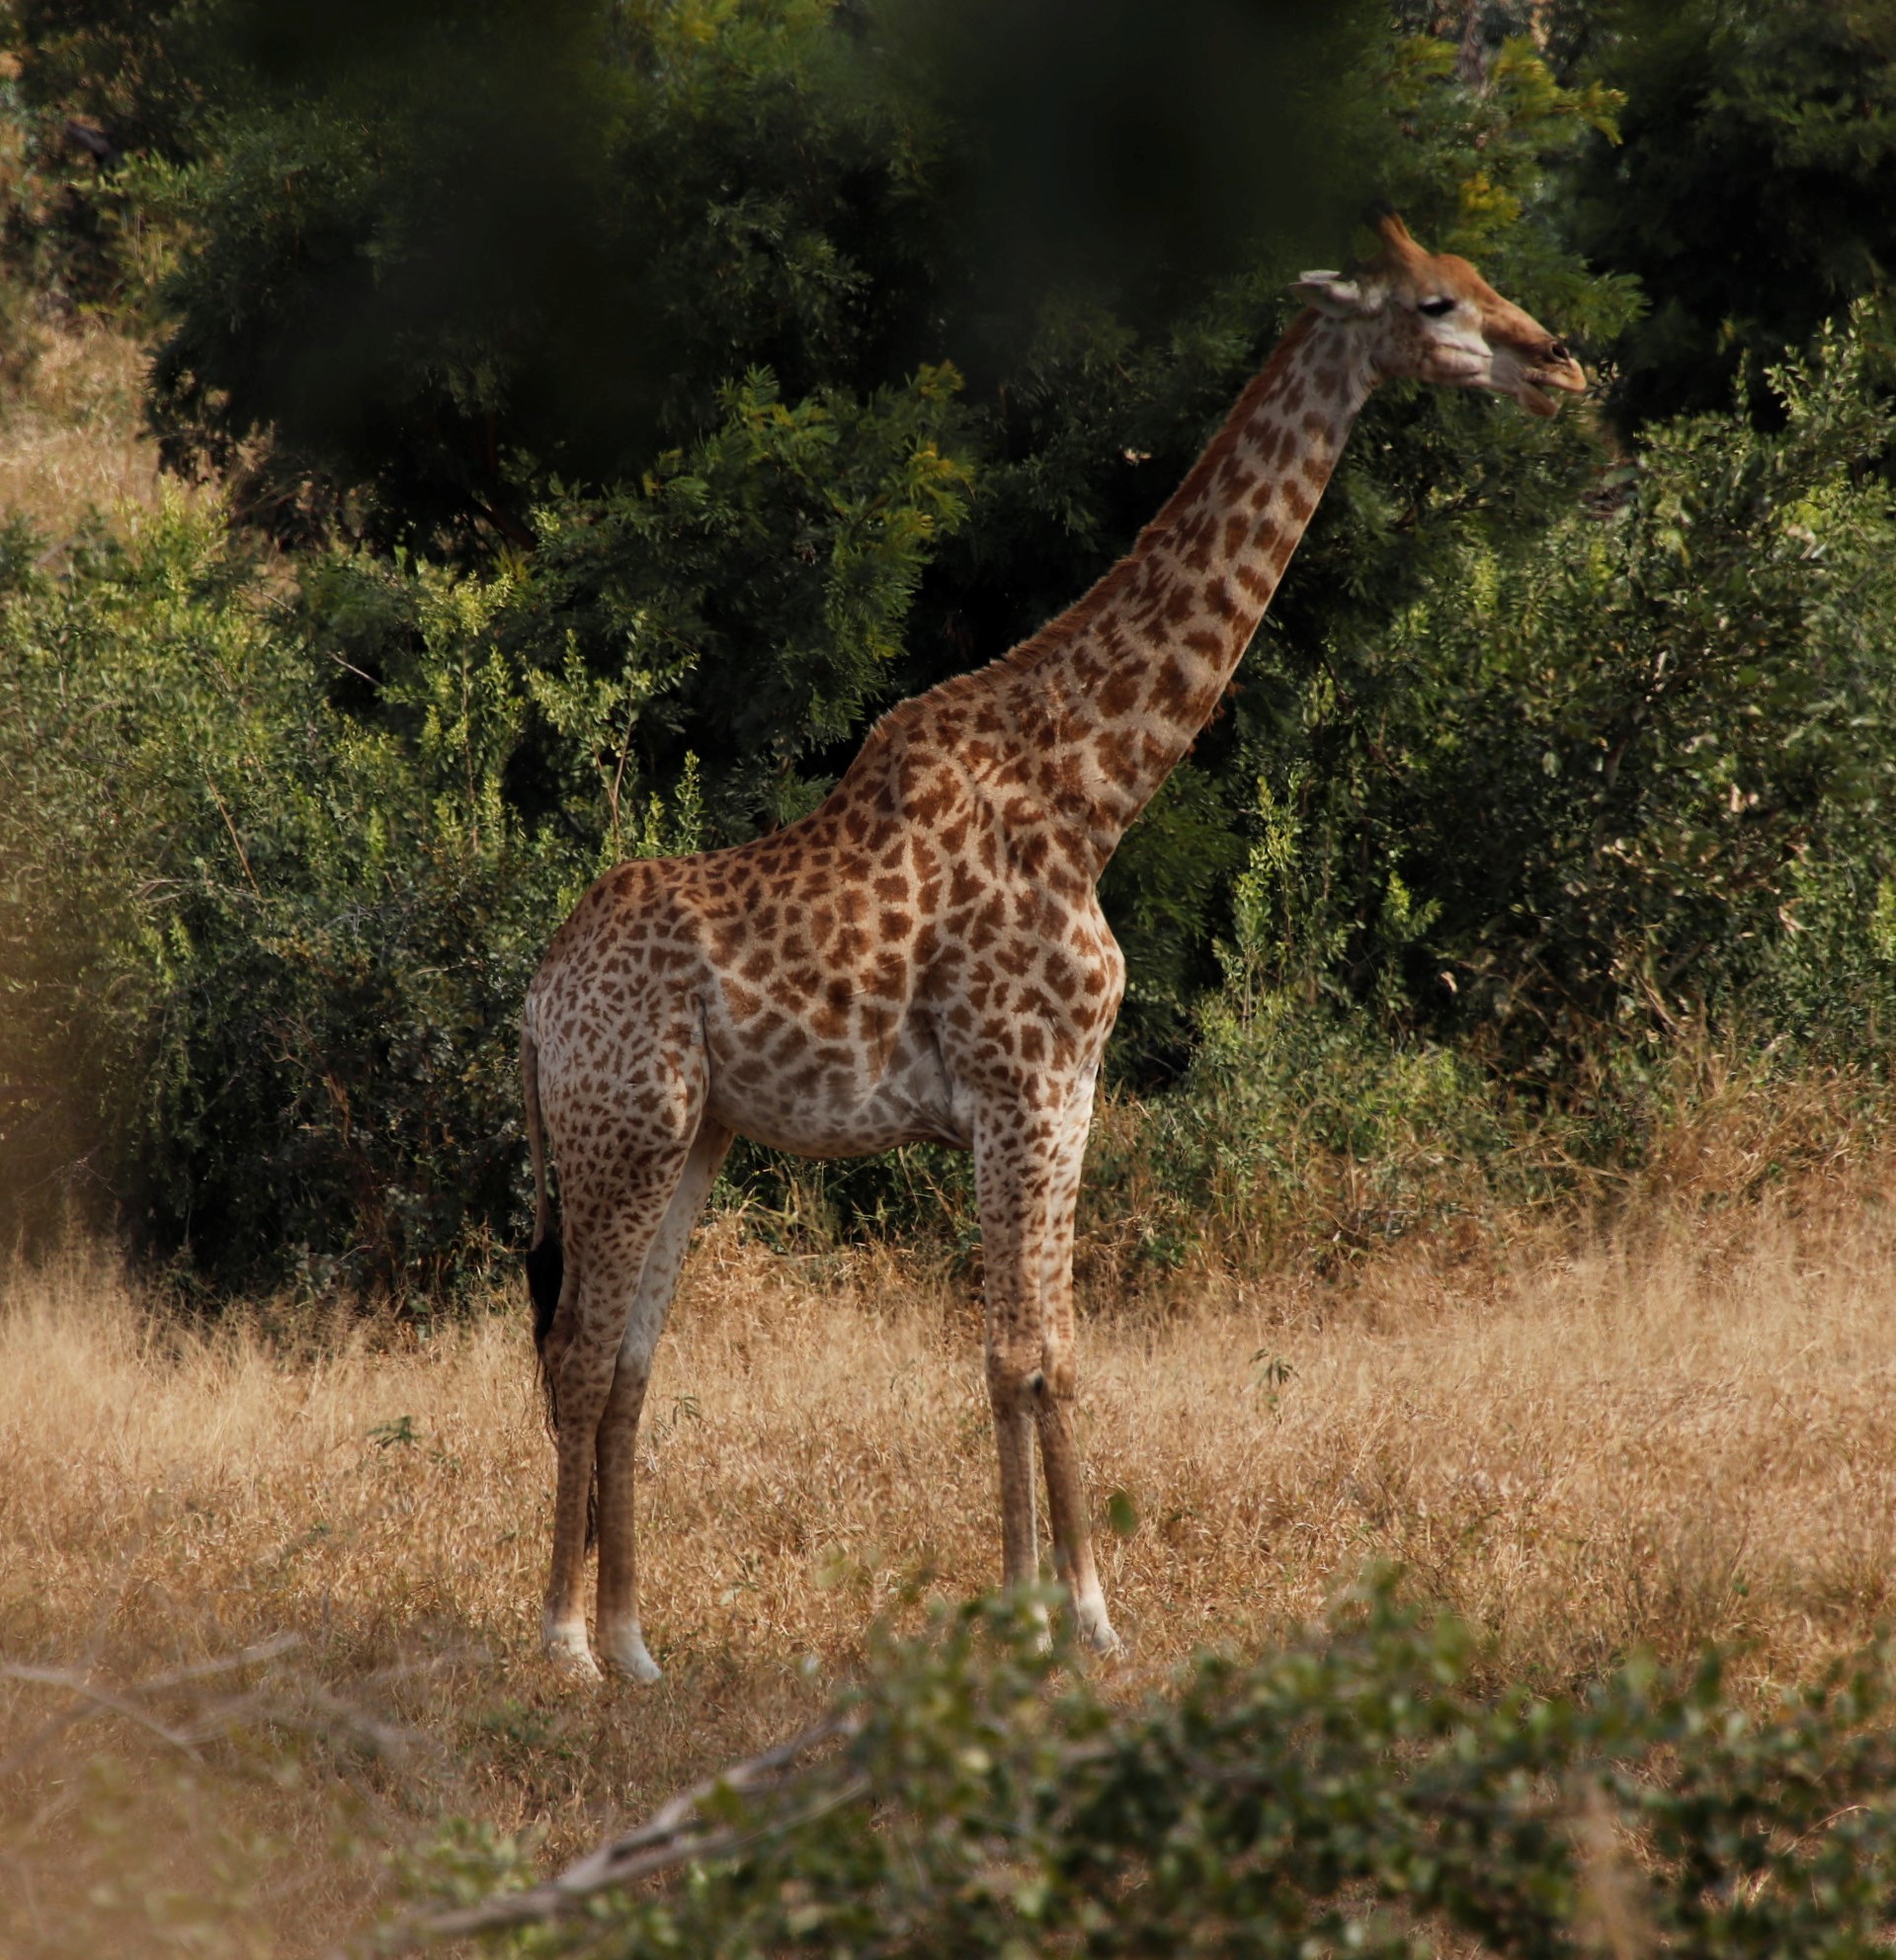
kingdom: Animalia
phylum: Chordata
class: Mammalia
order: Artiodactyla
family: Giraffidae
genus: Giraffa
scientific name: Giraffa giraffa
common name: Southern giraffe
